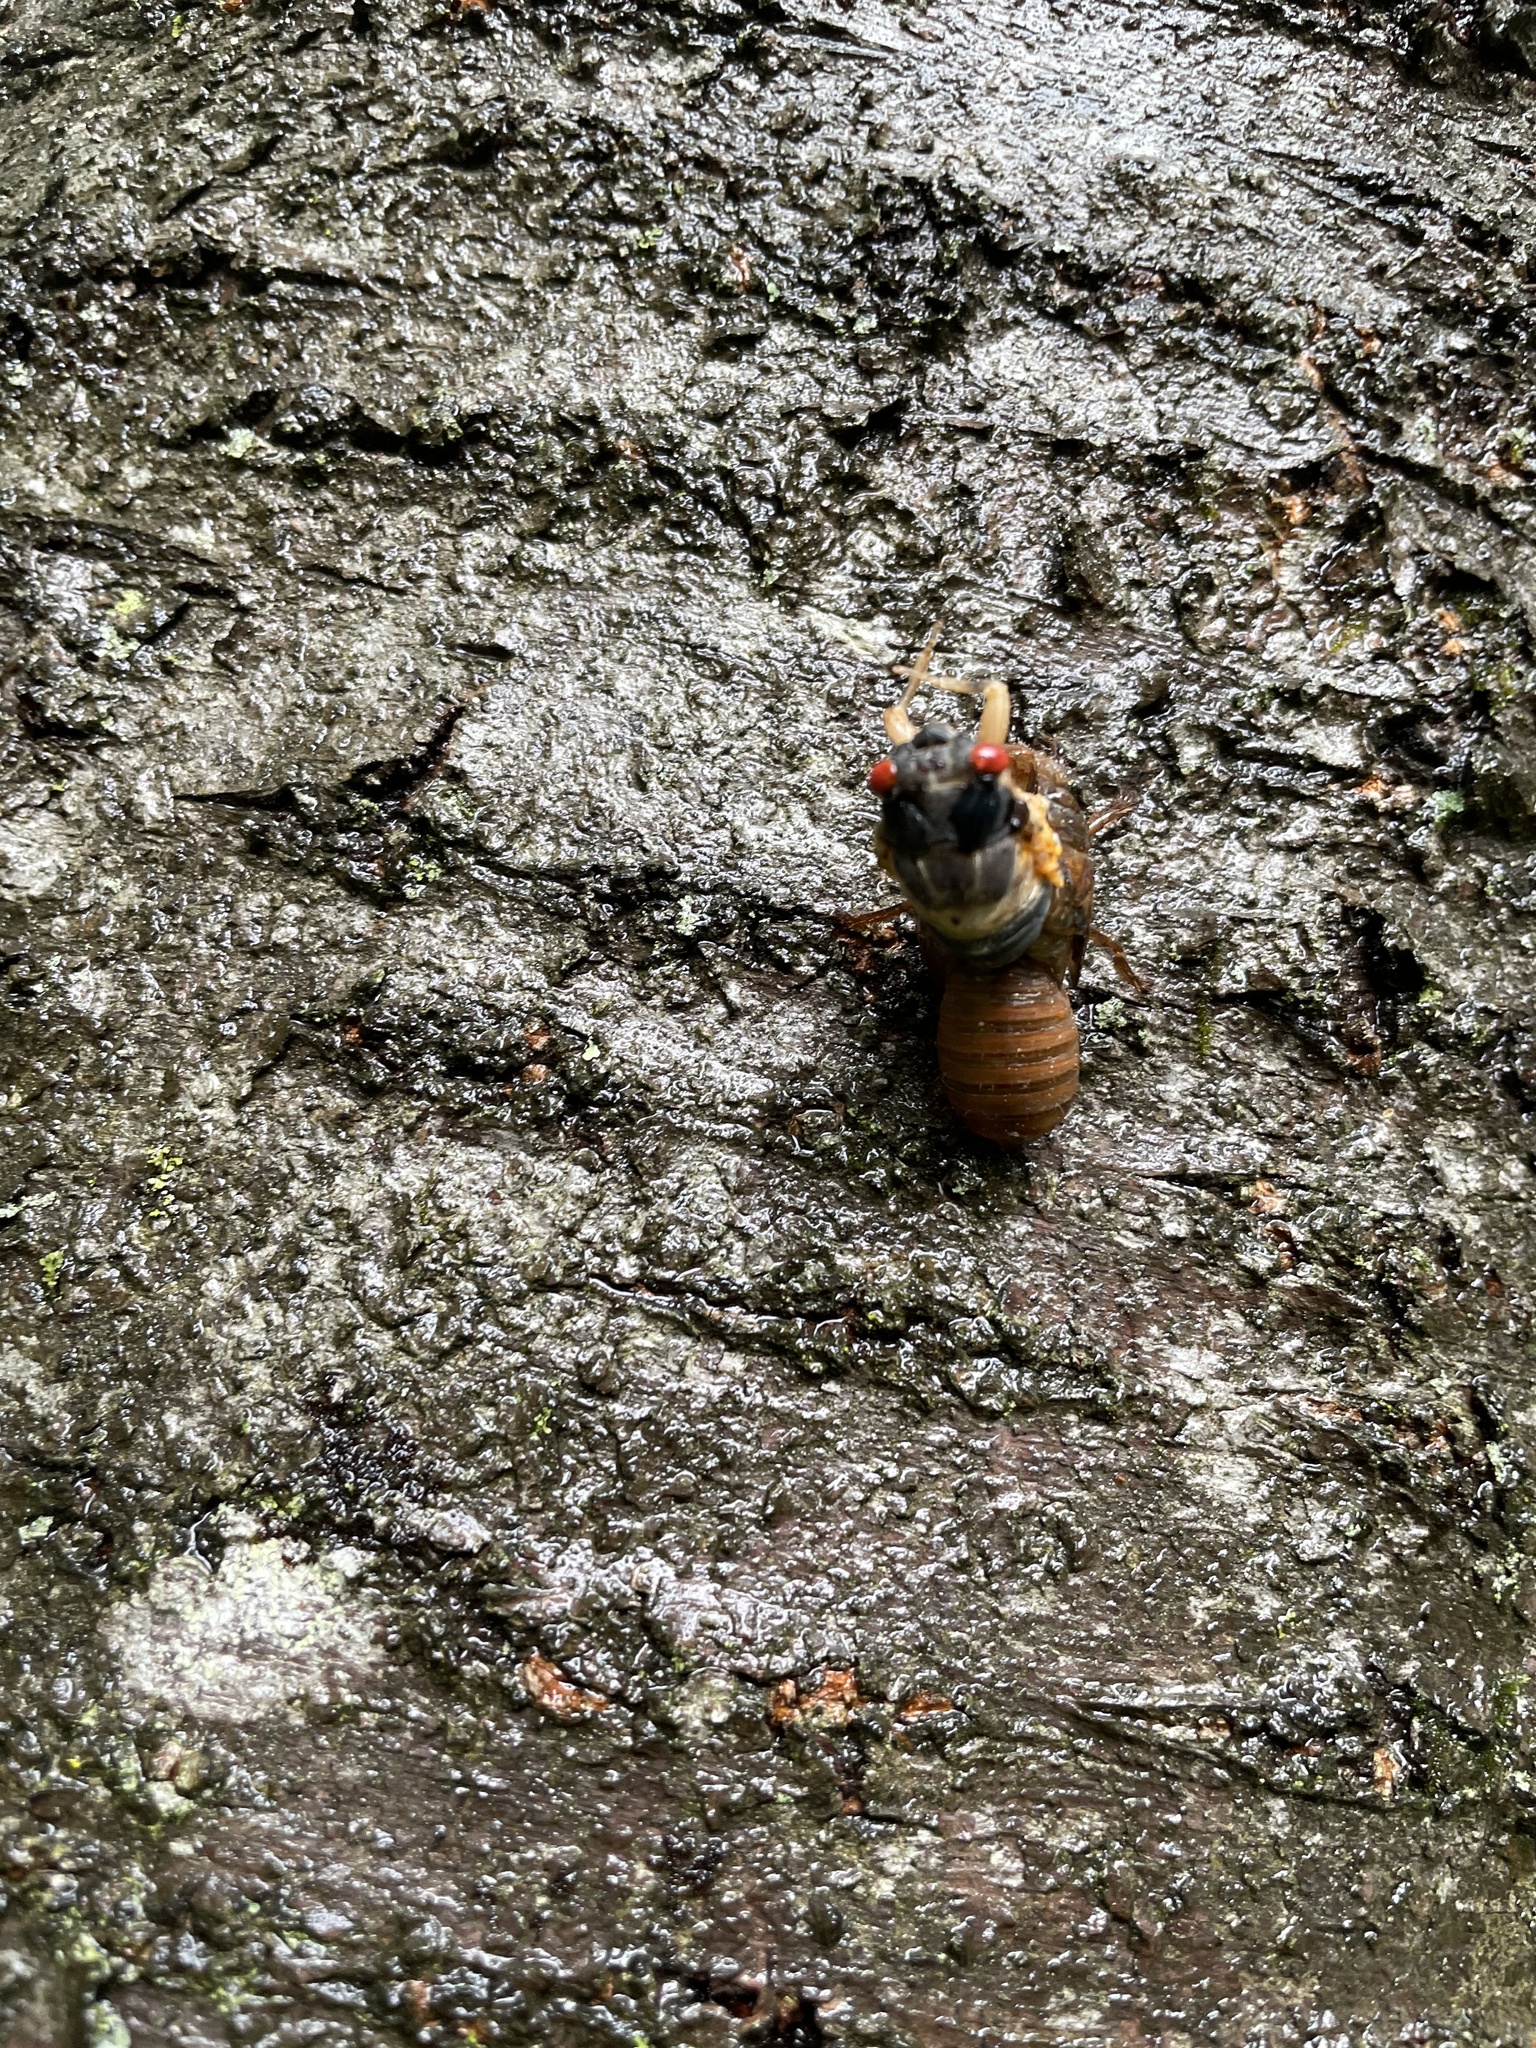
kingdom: Animalia
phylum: Arthropoda
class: Insecta
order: Hemiptera
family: Cicadidae
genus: Magicicada
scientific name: Magicicada
